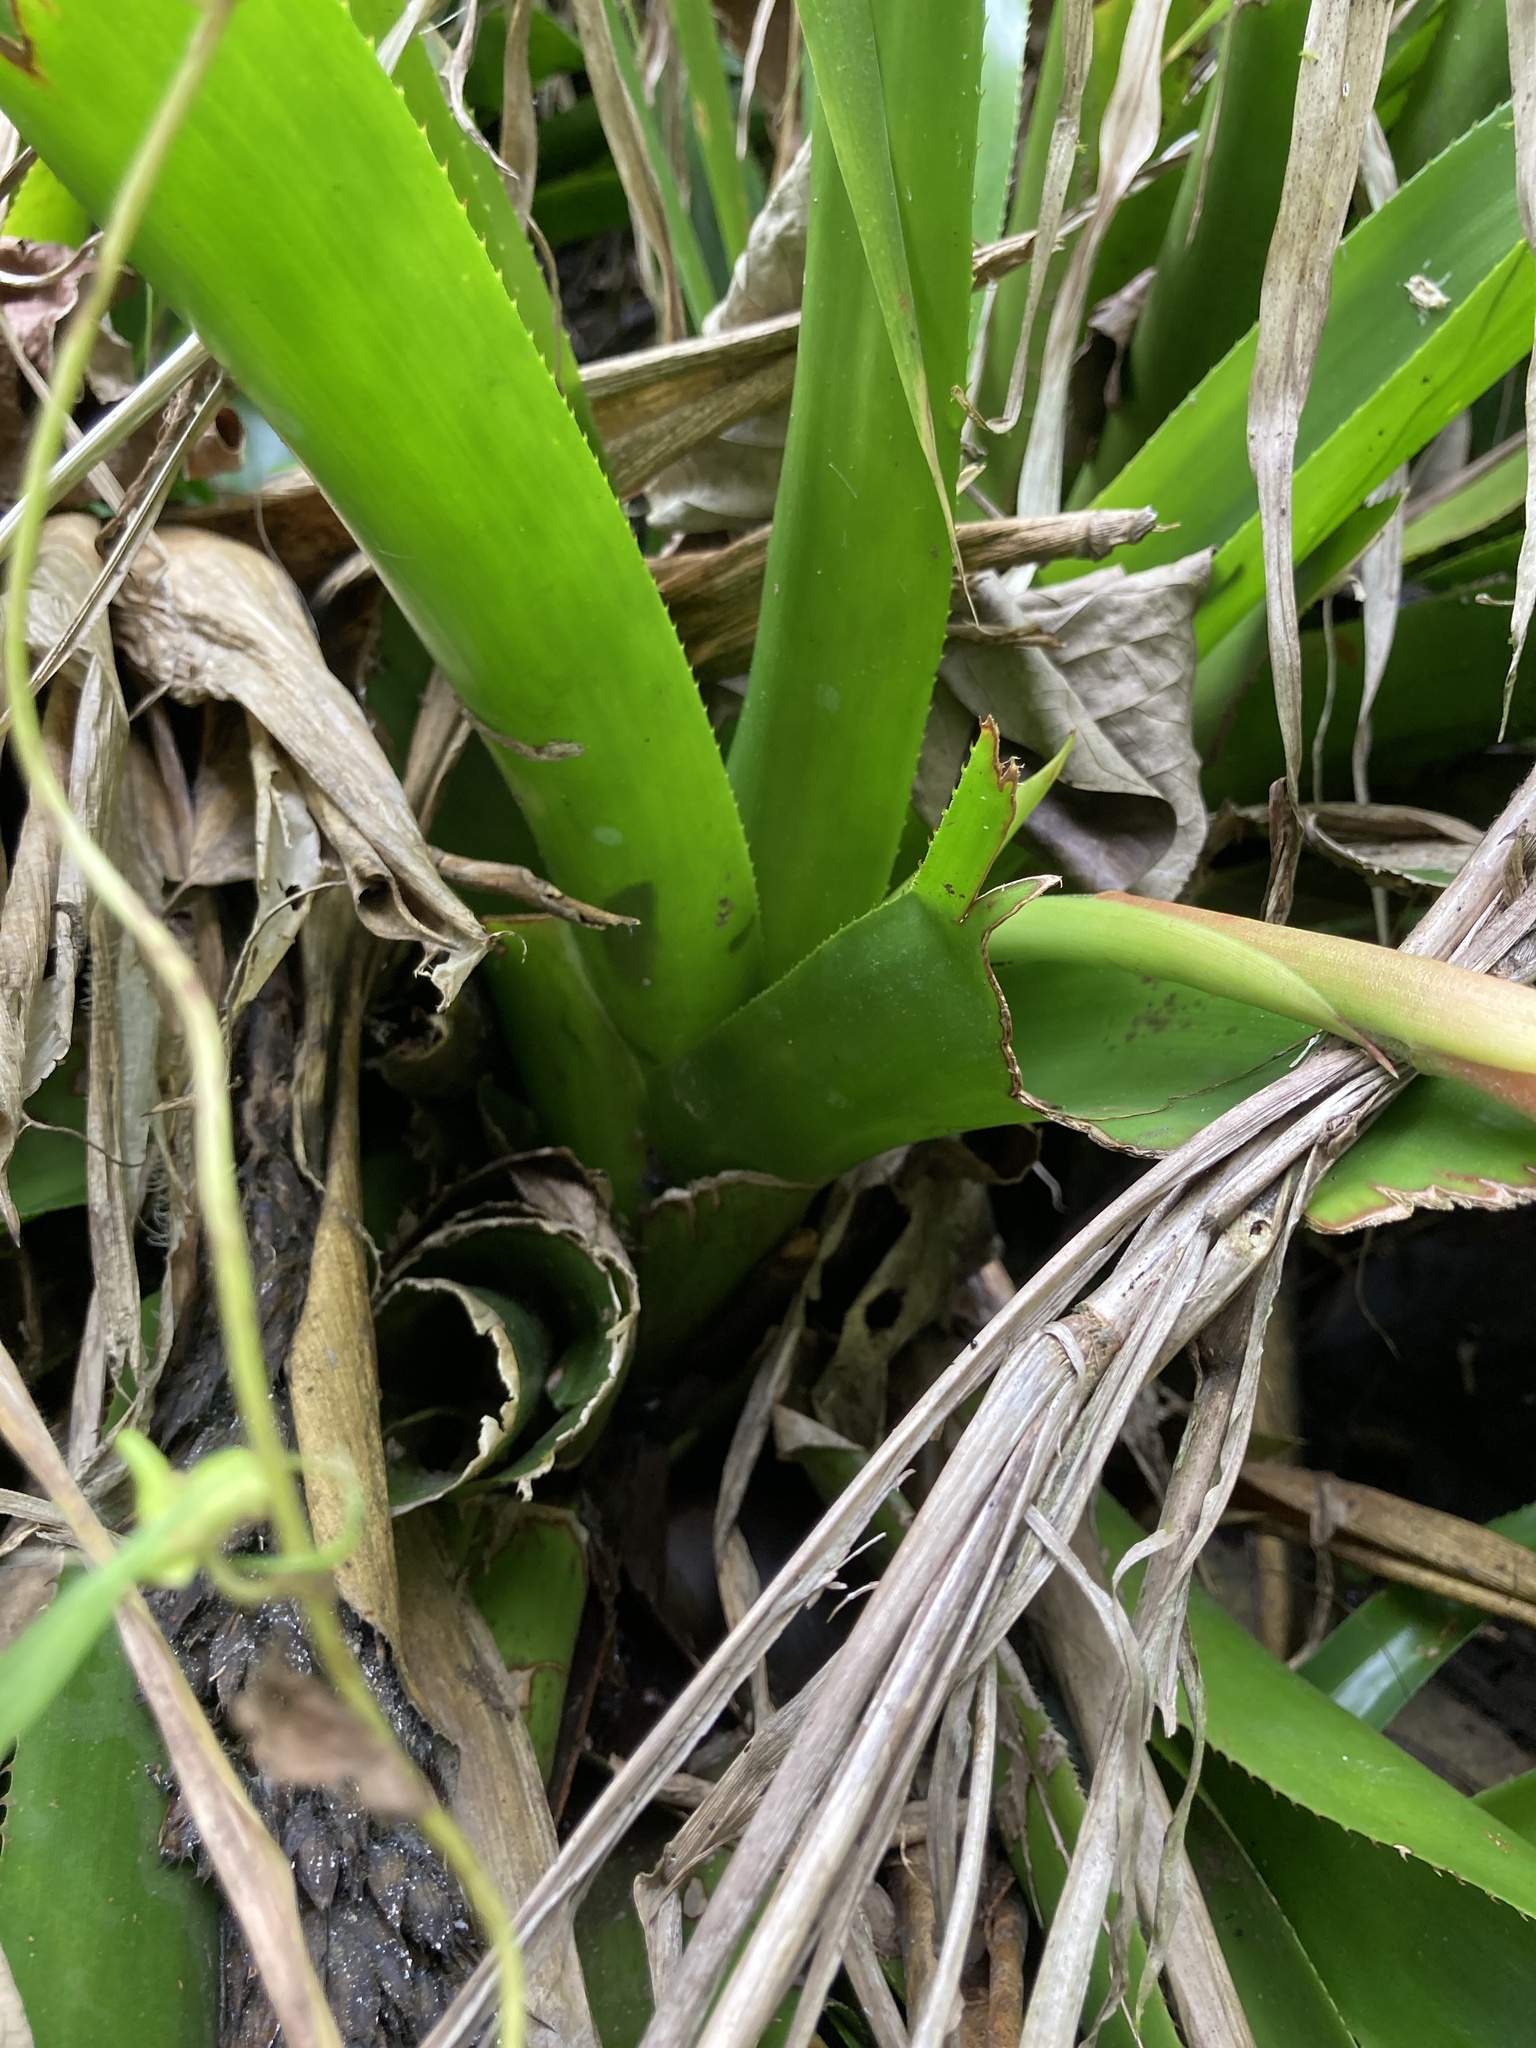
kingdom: Plantae
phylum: Tracheophyta
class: Liliopsida
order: Poales
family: Bromeliaceae
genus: Aechmea
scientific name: Aechmea smithiorum
